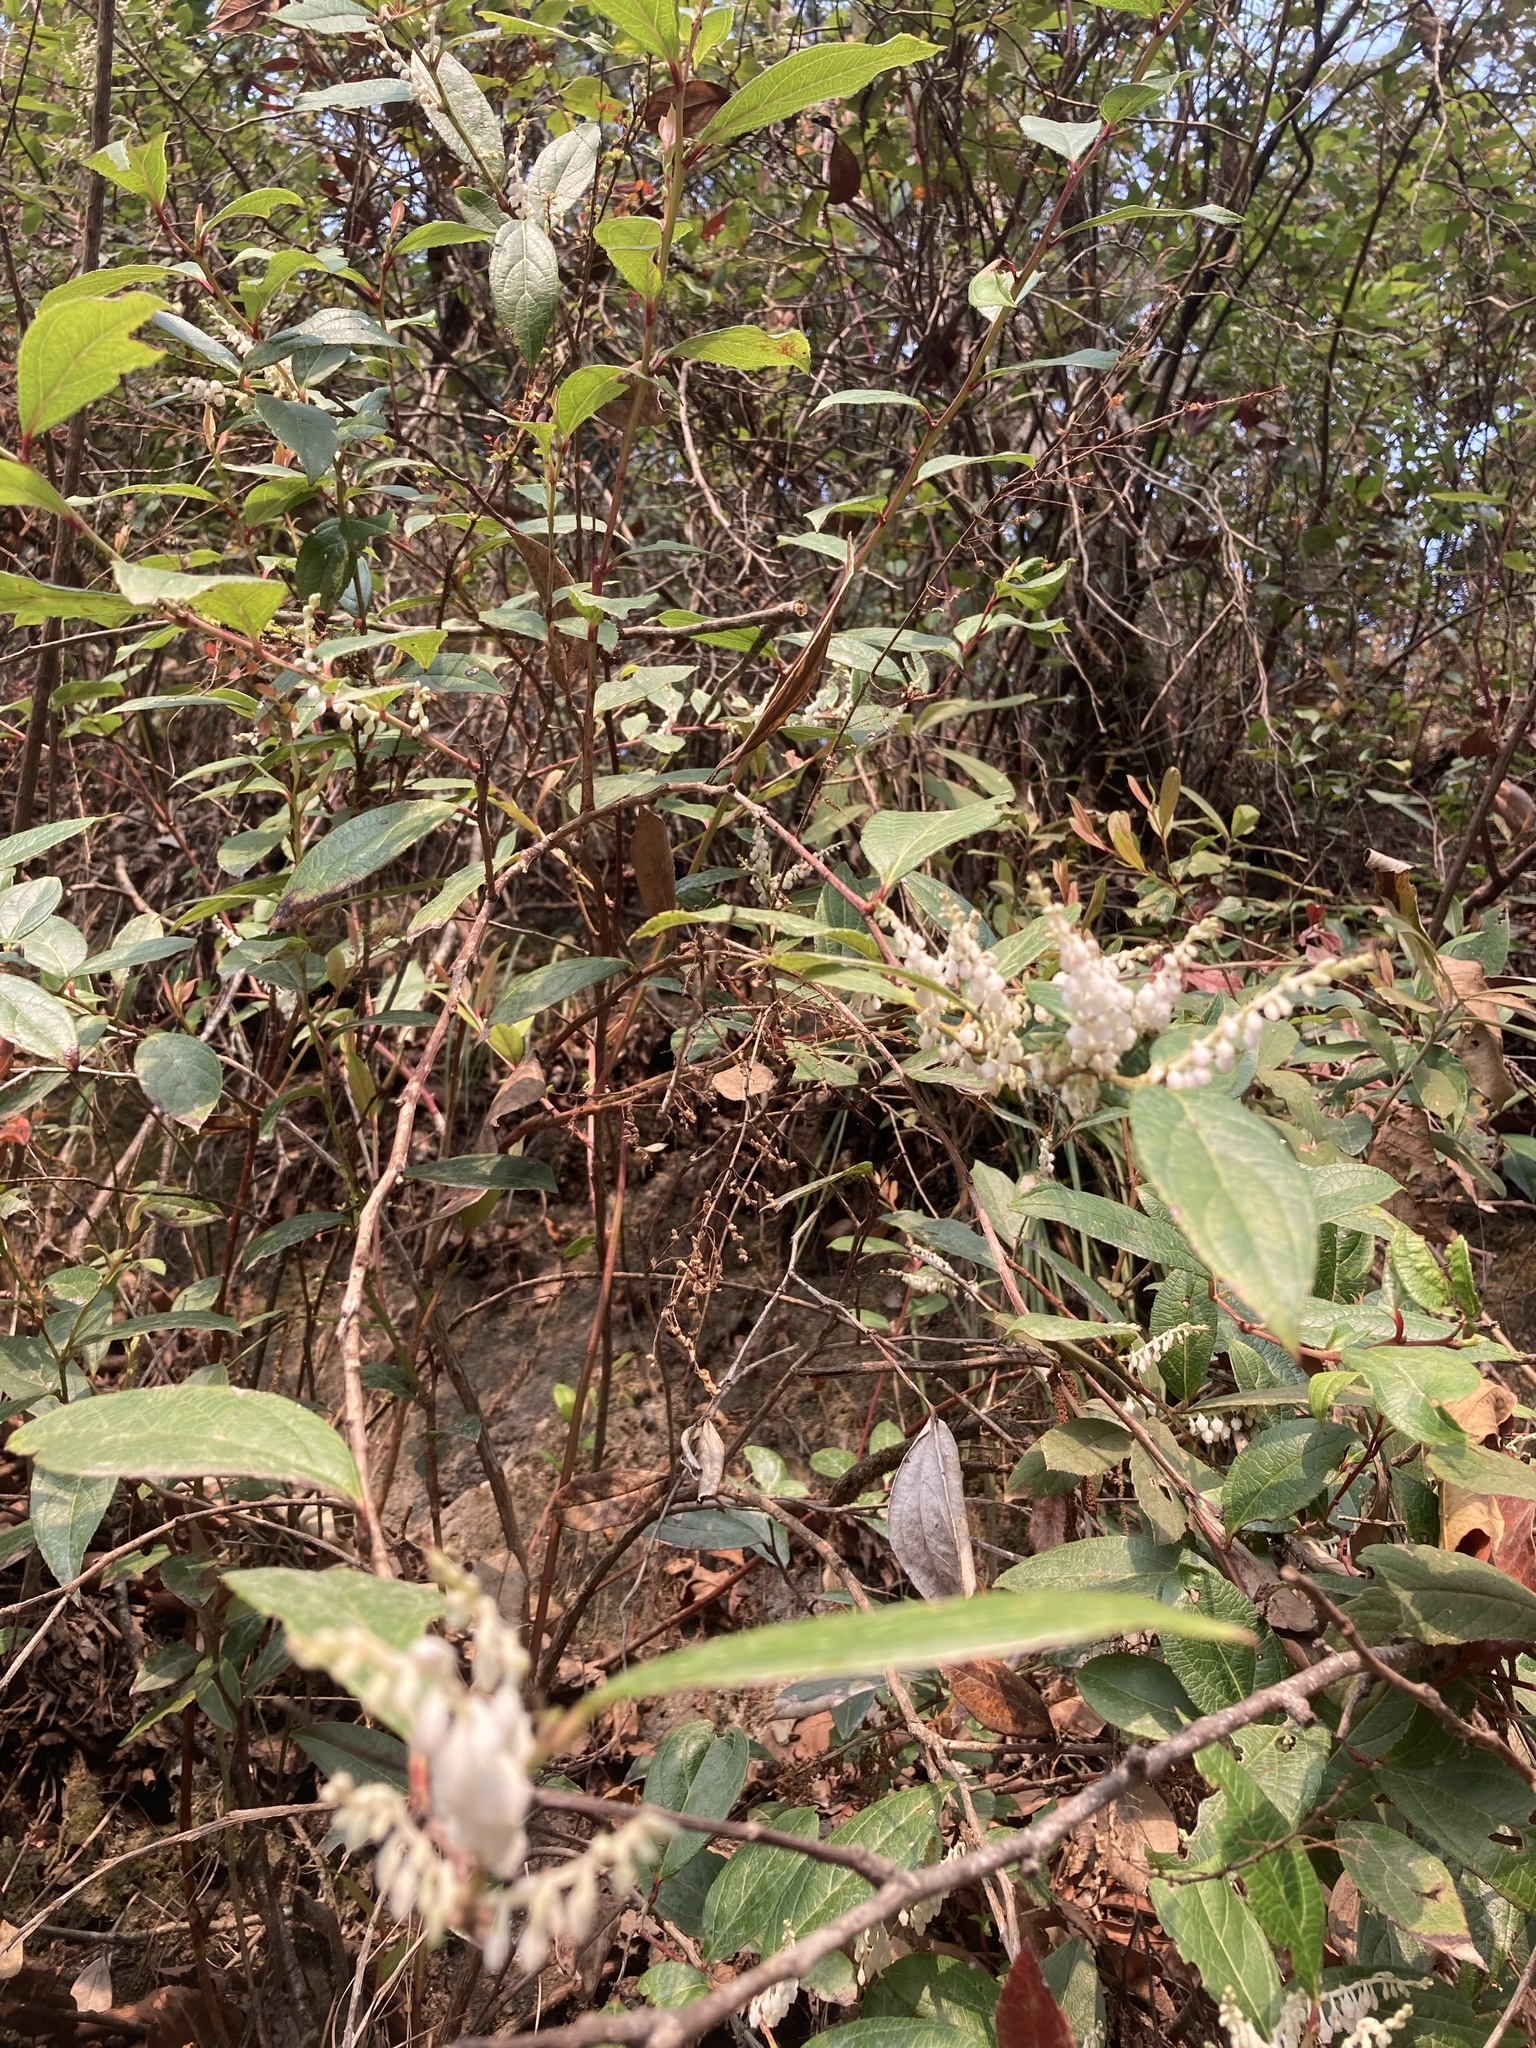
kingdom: Plantae
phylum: Tracheophyta
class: Magnoliopsida
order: Ericales
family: Ericaceae
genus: Gaultheria
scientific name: Gaultheria fragrantissima
